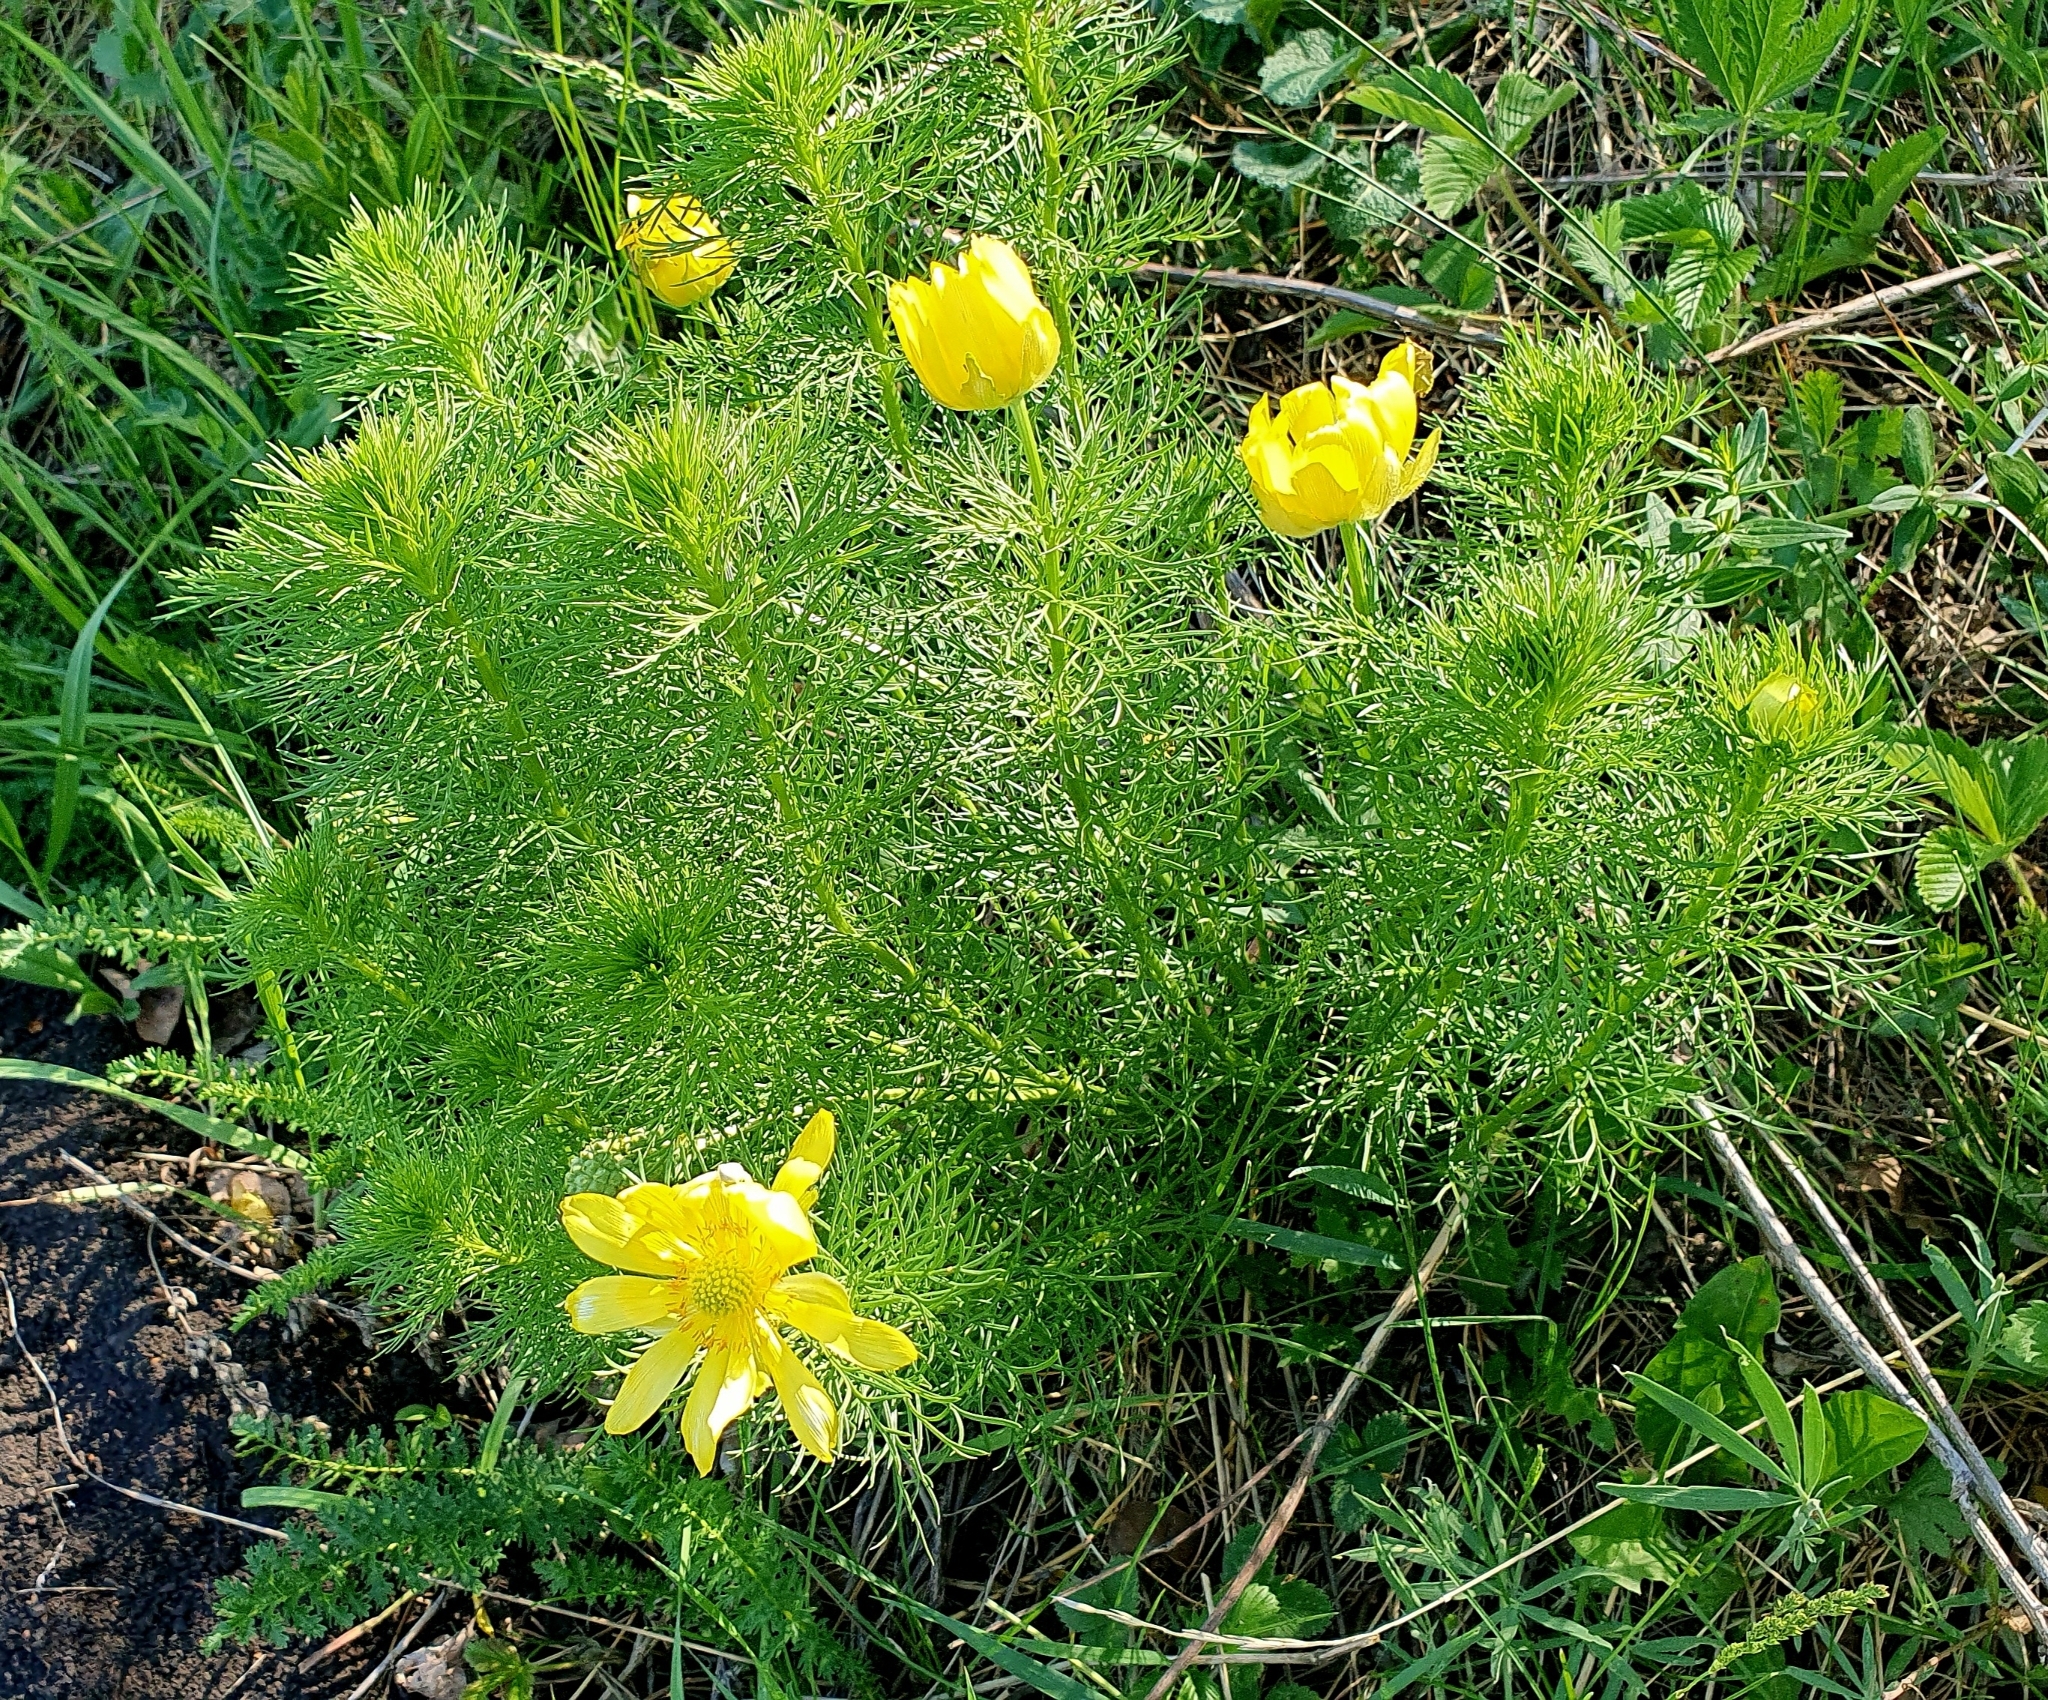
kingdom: Plantae
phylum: Tracheophyta
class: Magnoliopsida
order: Ranunculales
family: Ranunculaceae
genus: Adonis
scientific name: Adonis vernalis
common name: Yellow pheasants-eye
